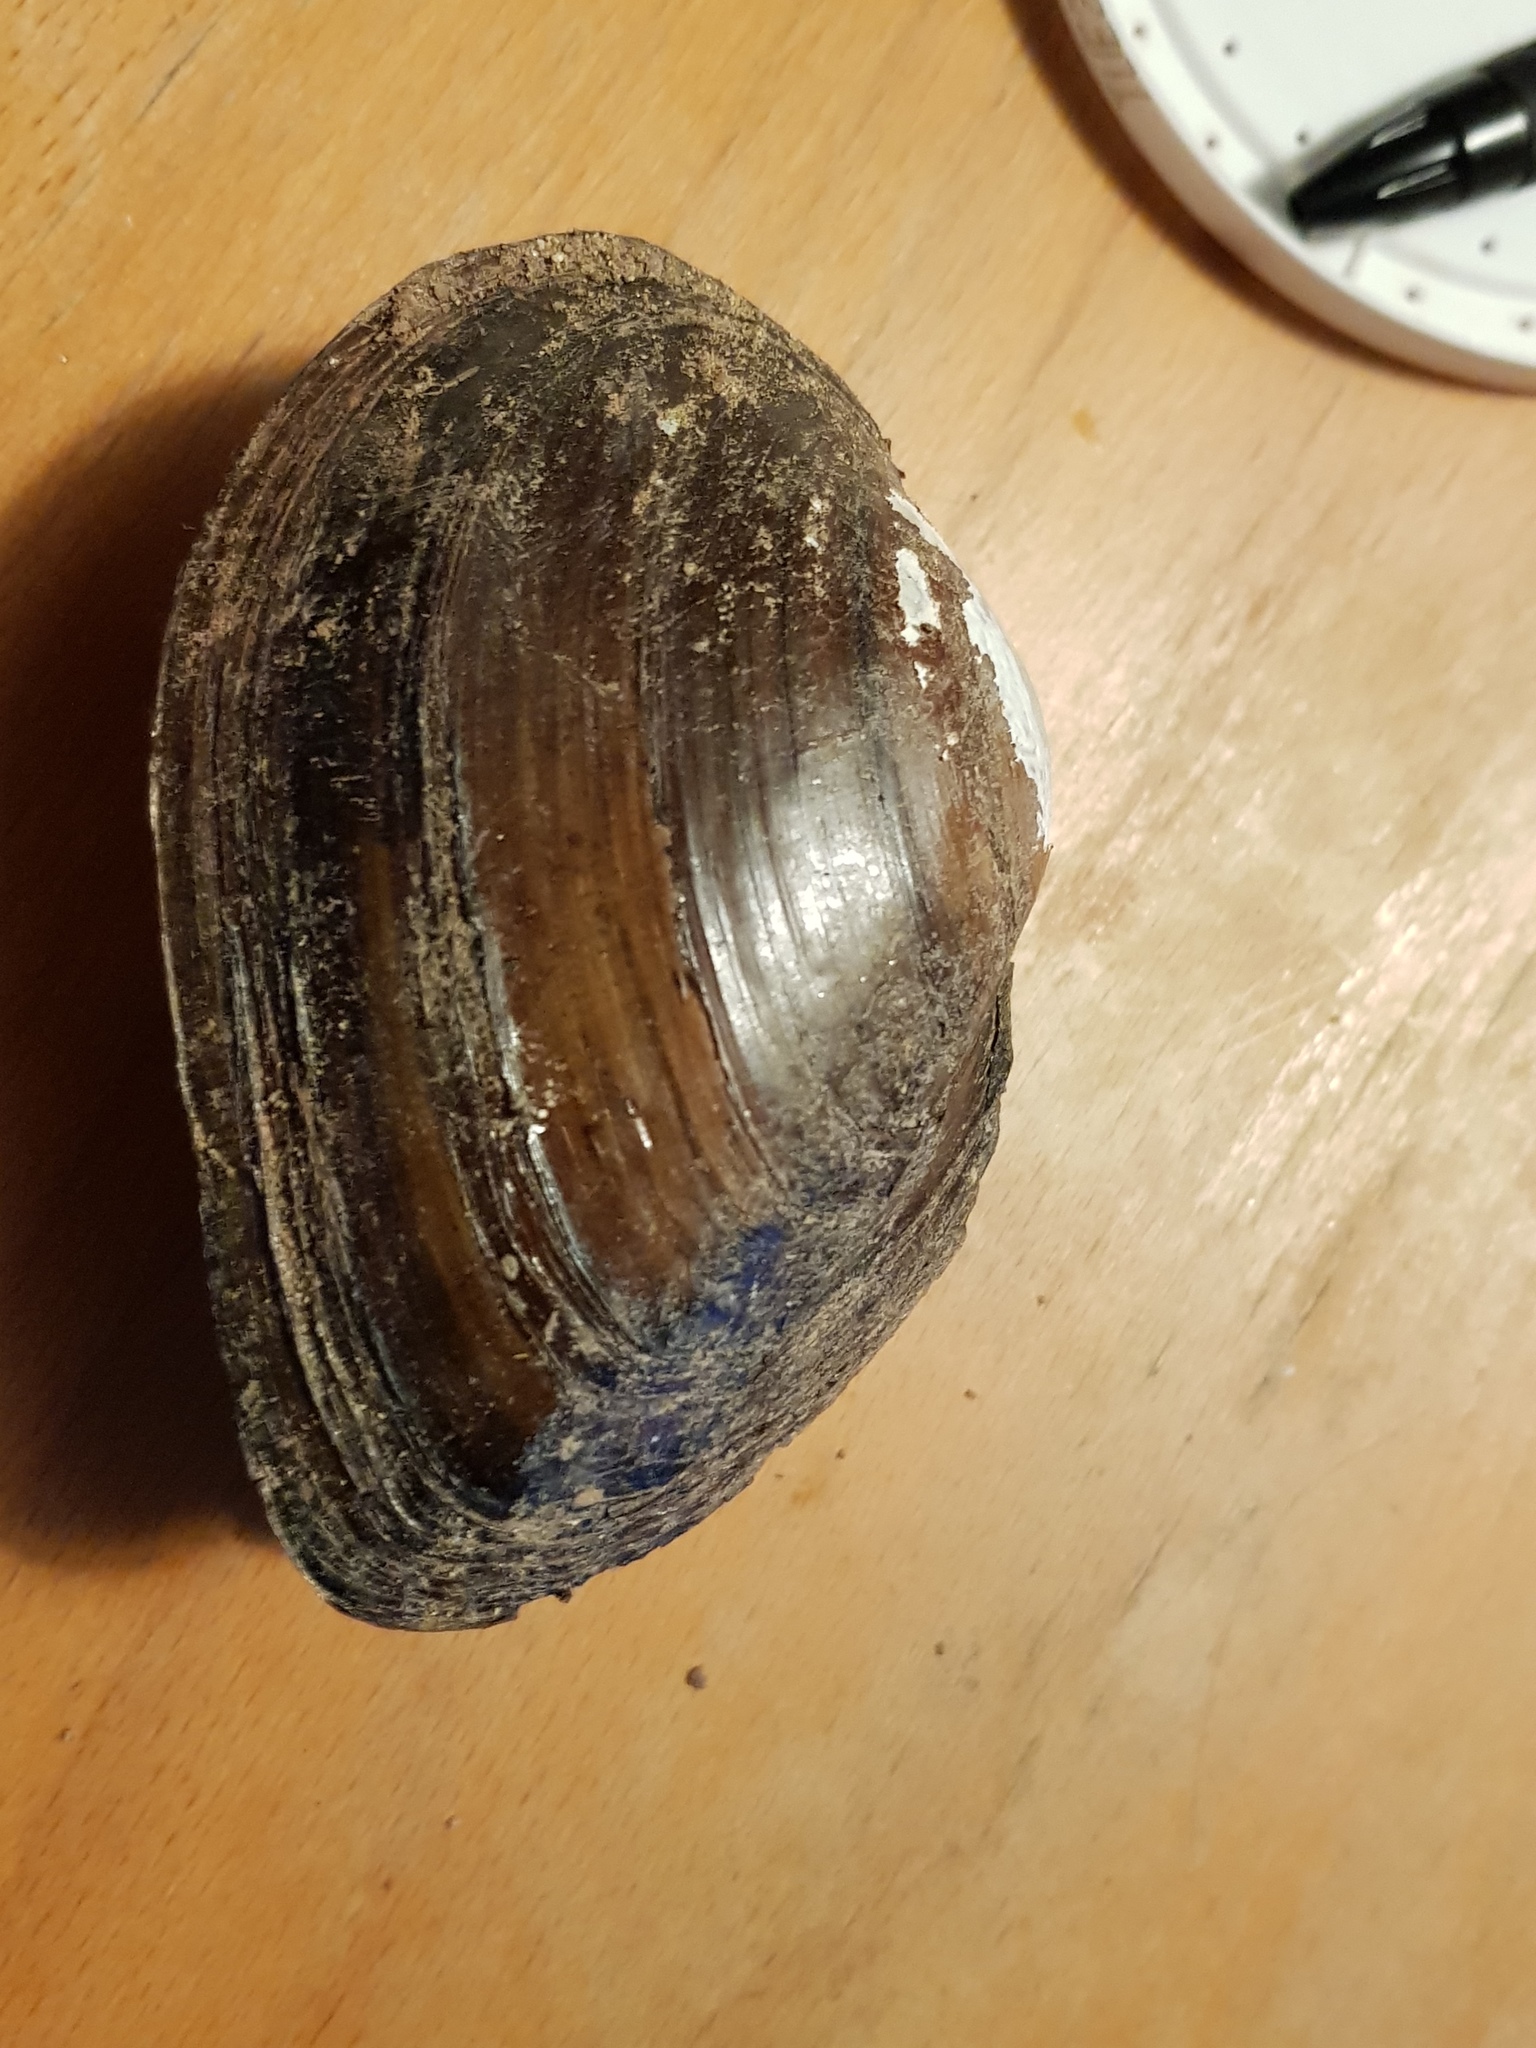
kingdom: Animalia
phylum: Mollusca
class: Bivalvia
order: Unionida
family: Unionidae
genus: Pyganodon
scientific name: Pyganodon cataracta
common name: Eastern floater
